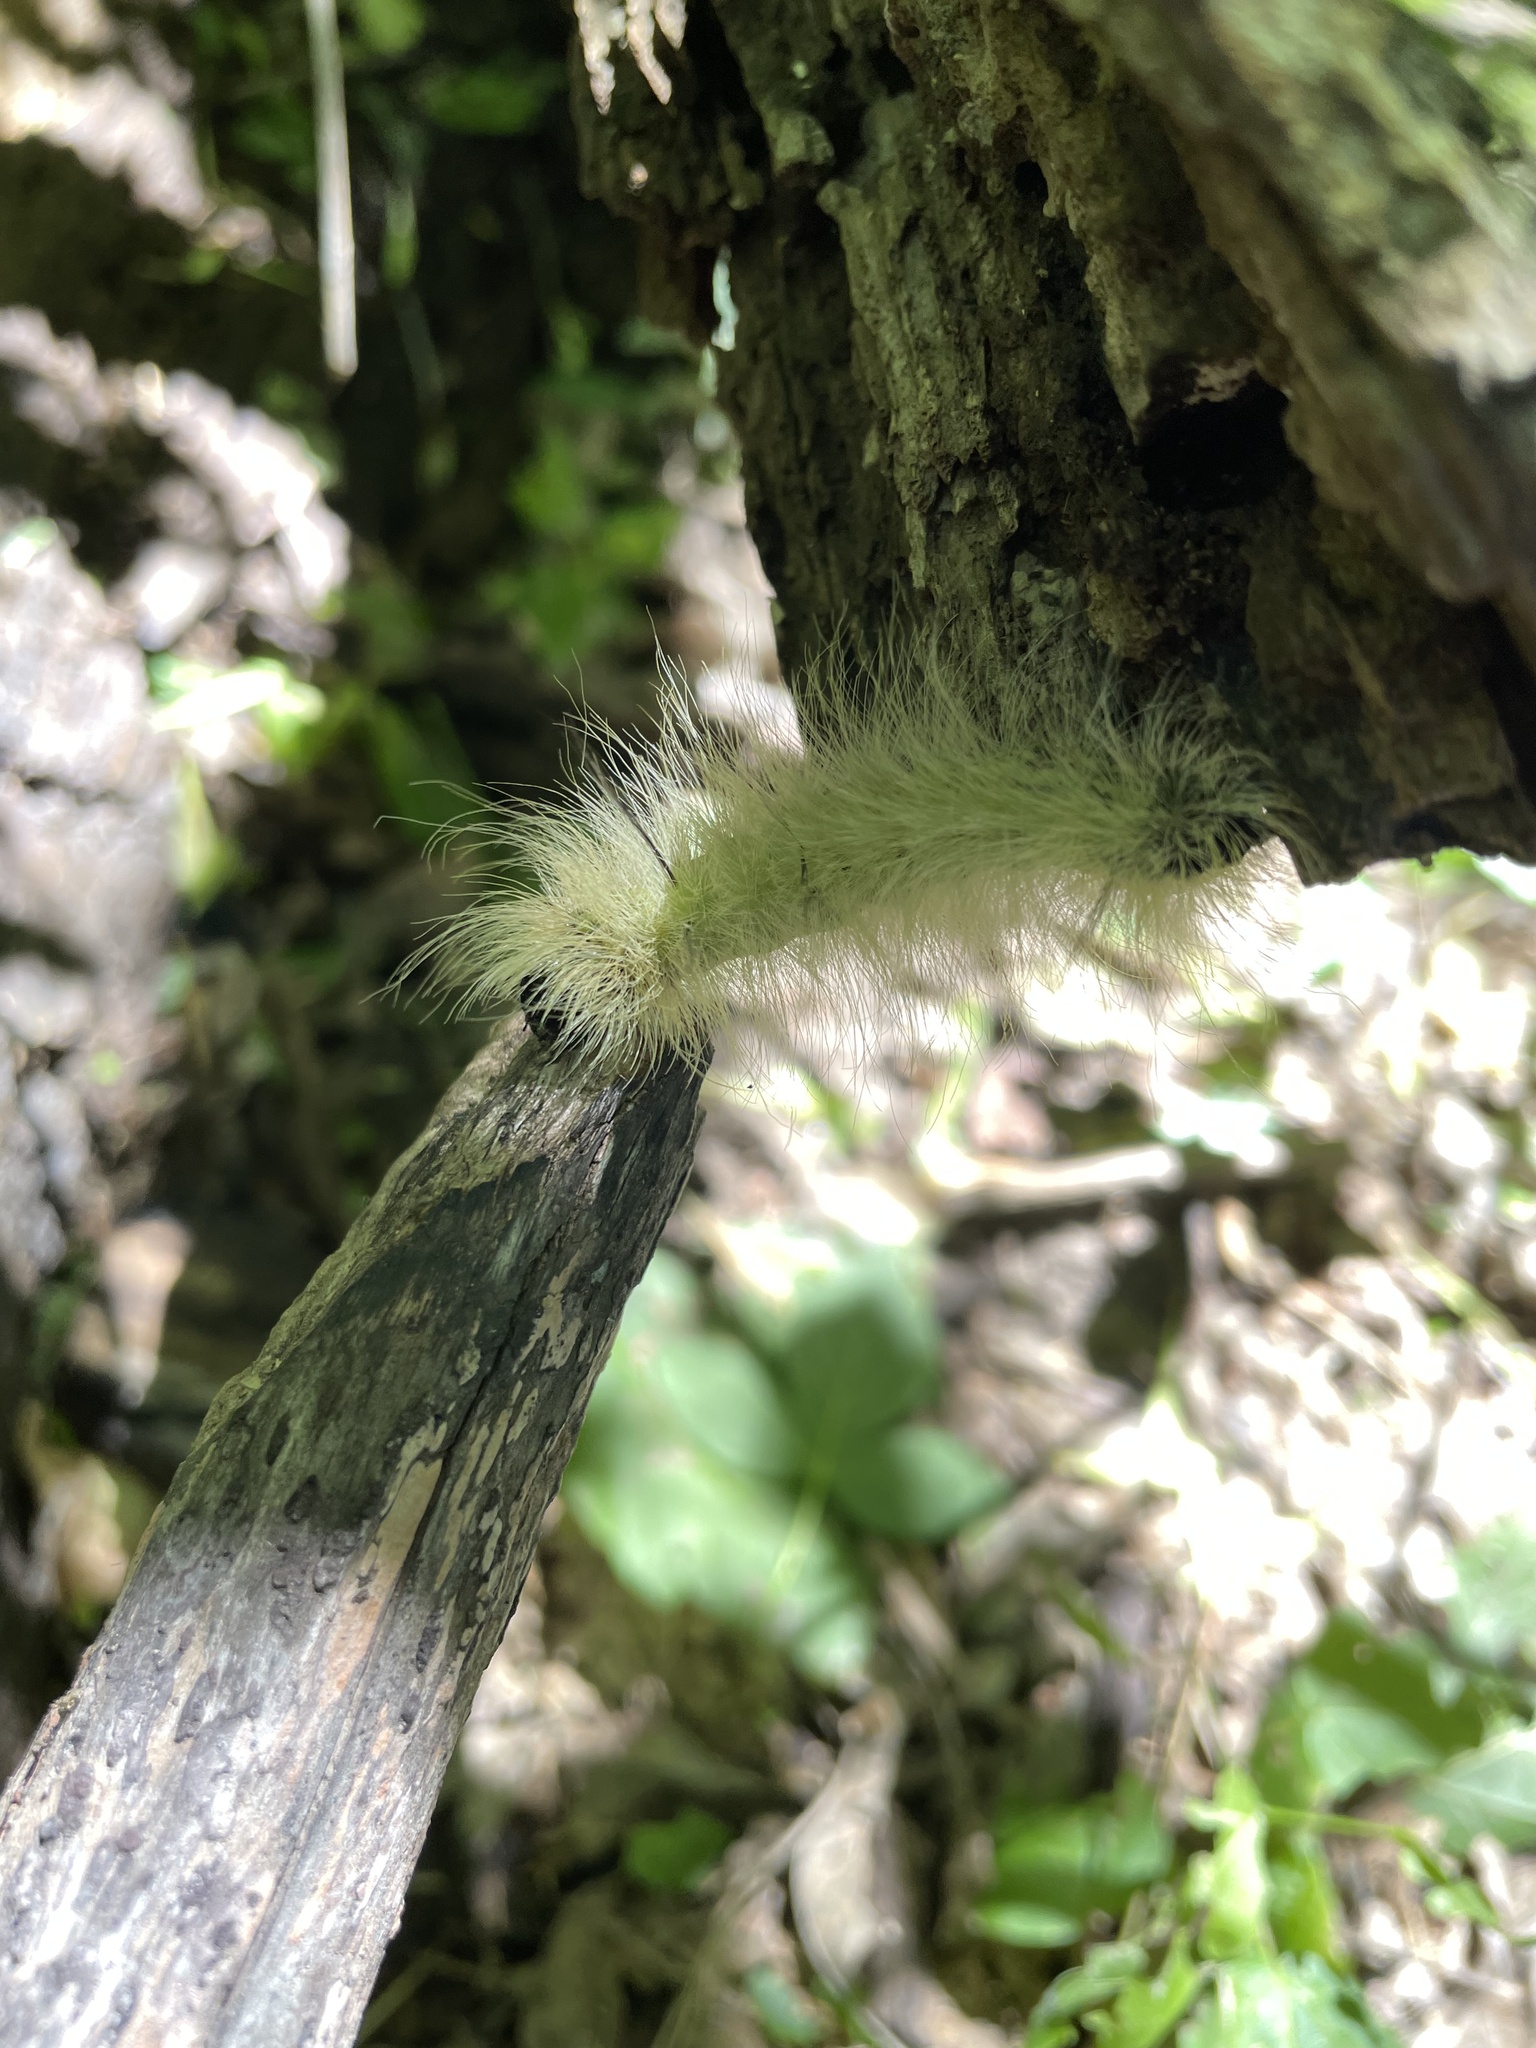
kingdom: Animalia
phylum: Arthropoda
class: Insecta
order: Lepidoptera
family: Noctuidae
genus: Acronicta
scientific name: Acronicta americana
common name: American dagger
